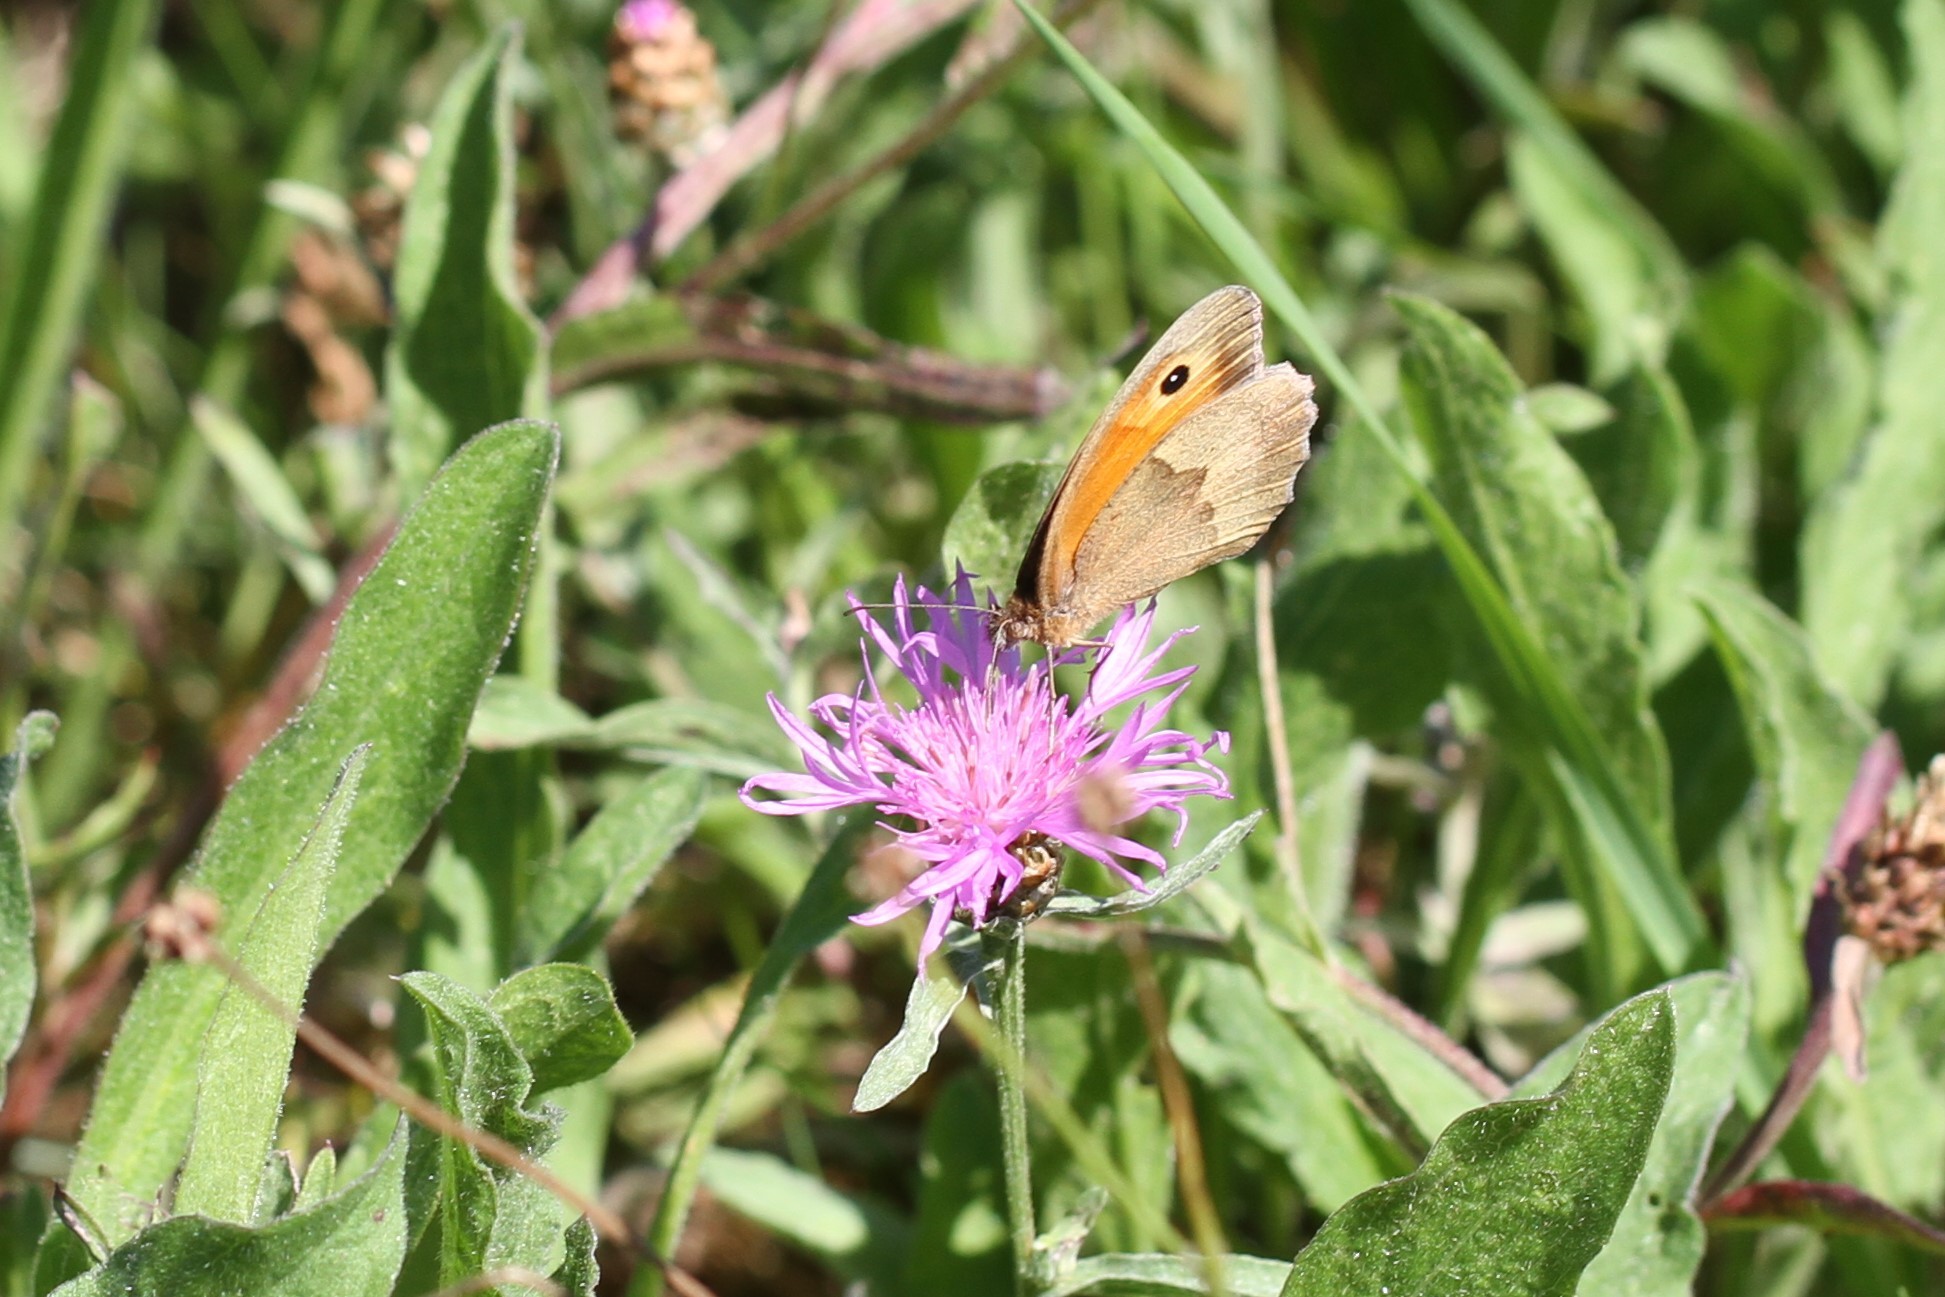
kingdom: Animalia
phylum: Arthropoda
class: Insecta
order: Lepidoptera
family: Nymphalidae
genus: Maniola
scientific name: Maniola jurtina
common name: Meadow brown
